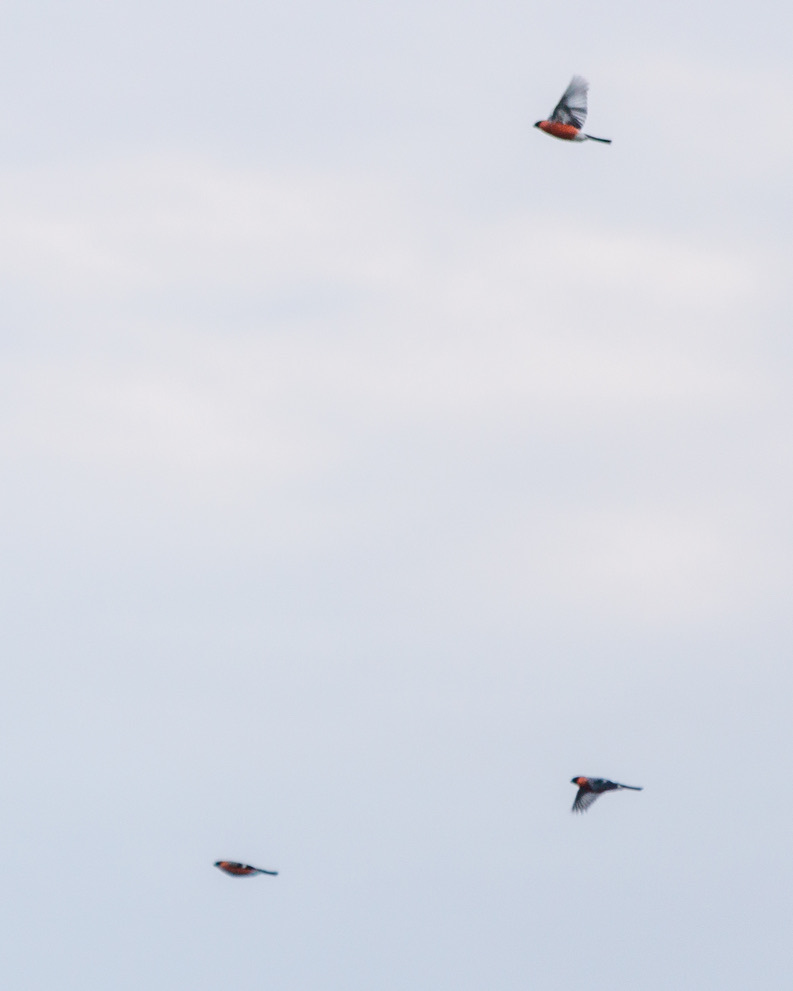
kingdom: Animalia
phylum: Chordata
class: Aves
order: Passeriformes
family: Fringillidae
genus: Pyrrhula
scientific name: Pyrrhula pyrrhula
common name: Eurasian bullfinch
